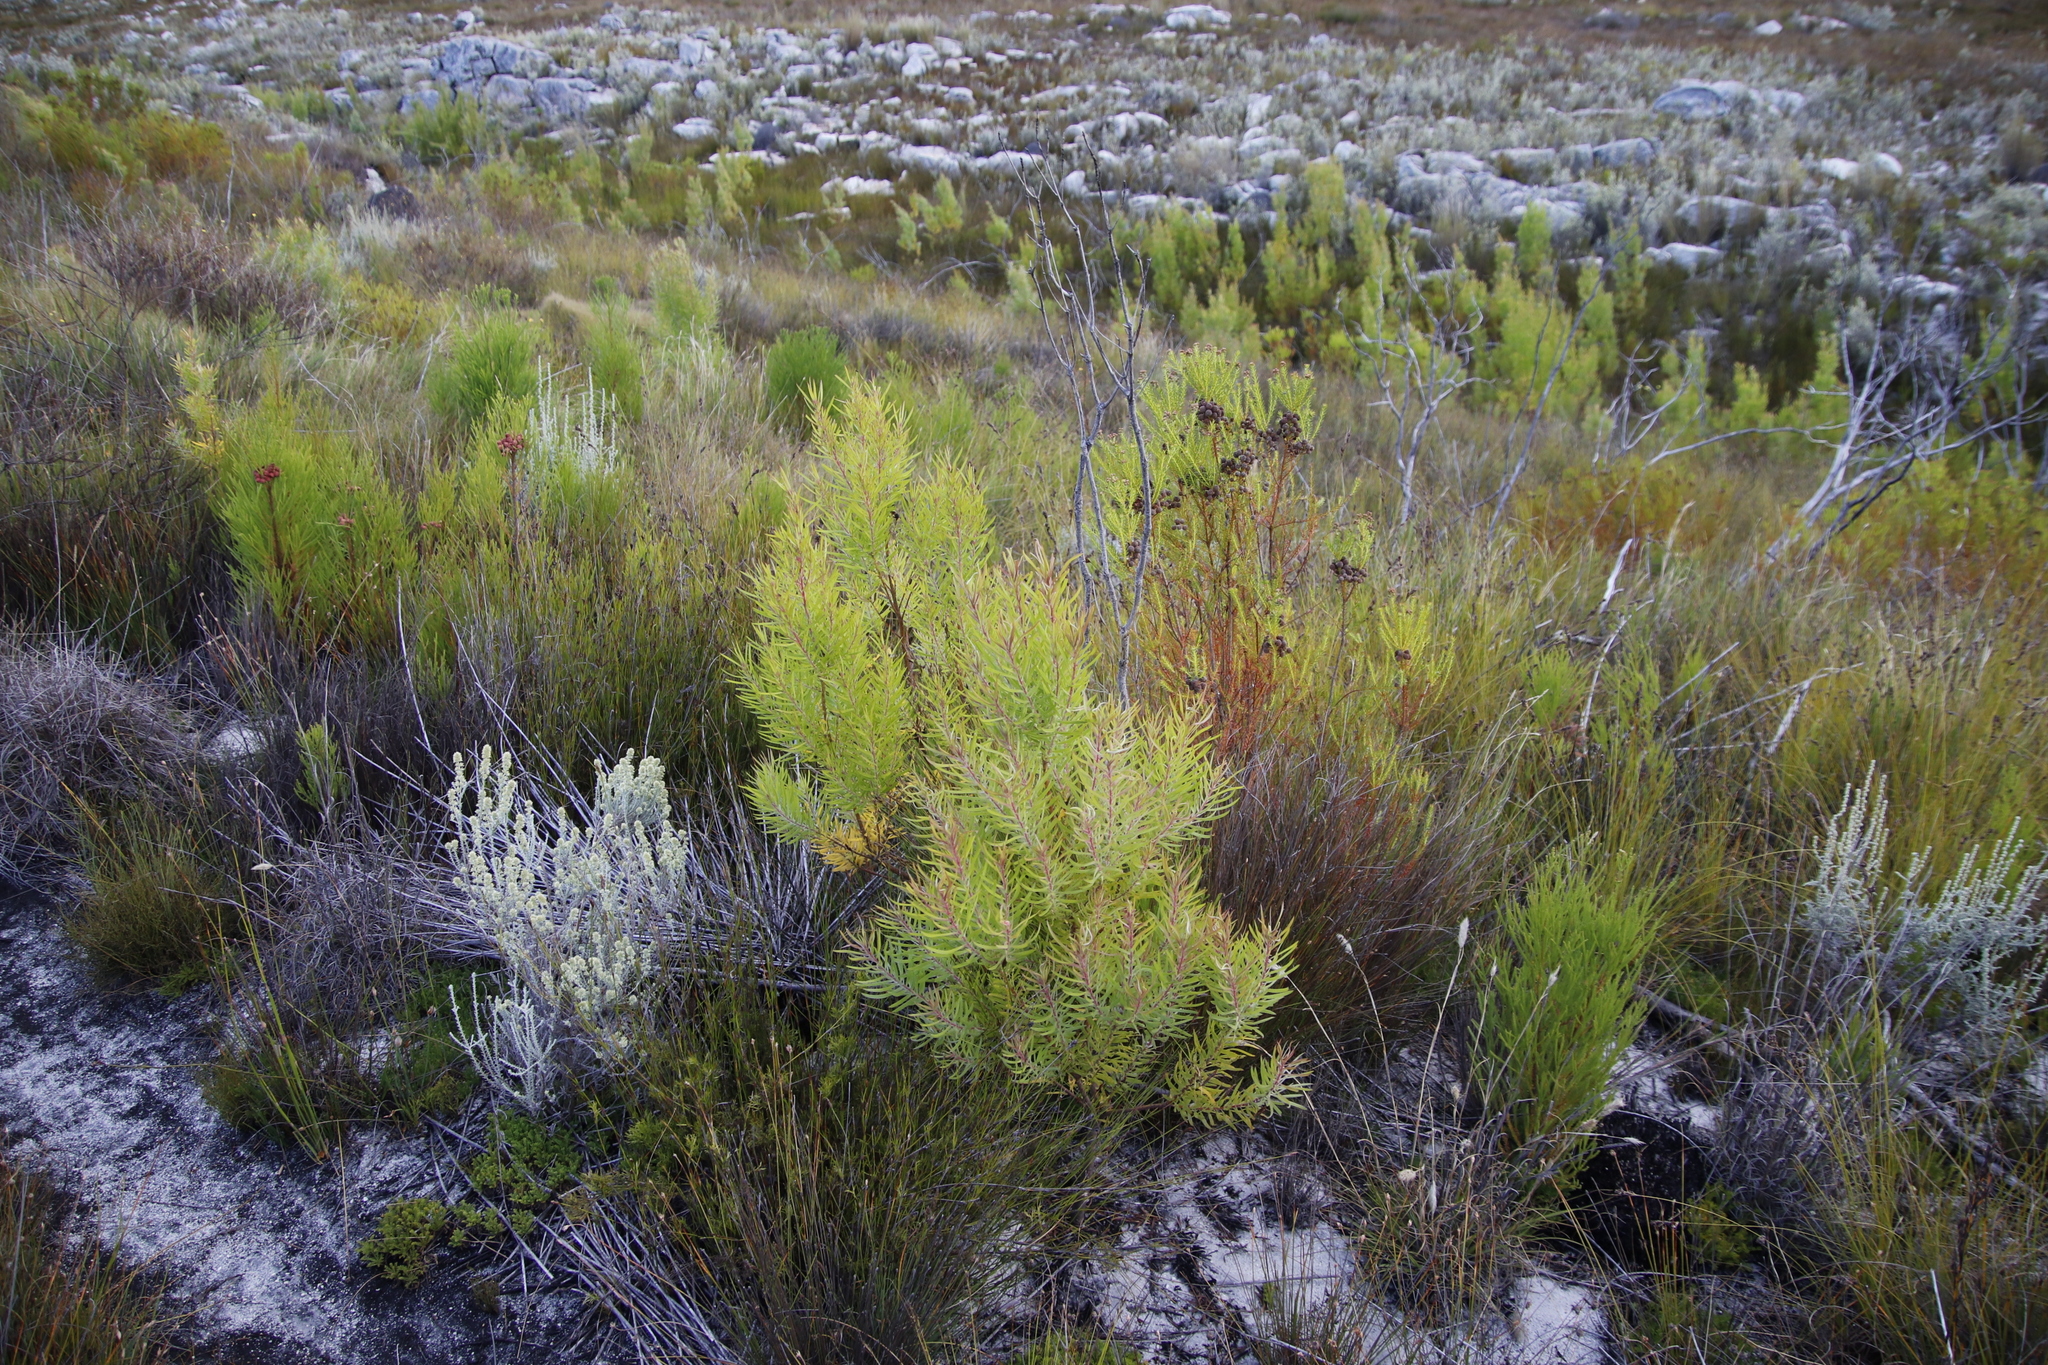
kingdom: Plantae
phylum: Tracheophyta
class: Magnoliopsida
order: Proteales
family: Proteaceae
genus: Leucadendron
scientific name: Leucadendron salicifolium
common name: Common stream conebush
